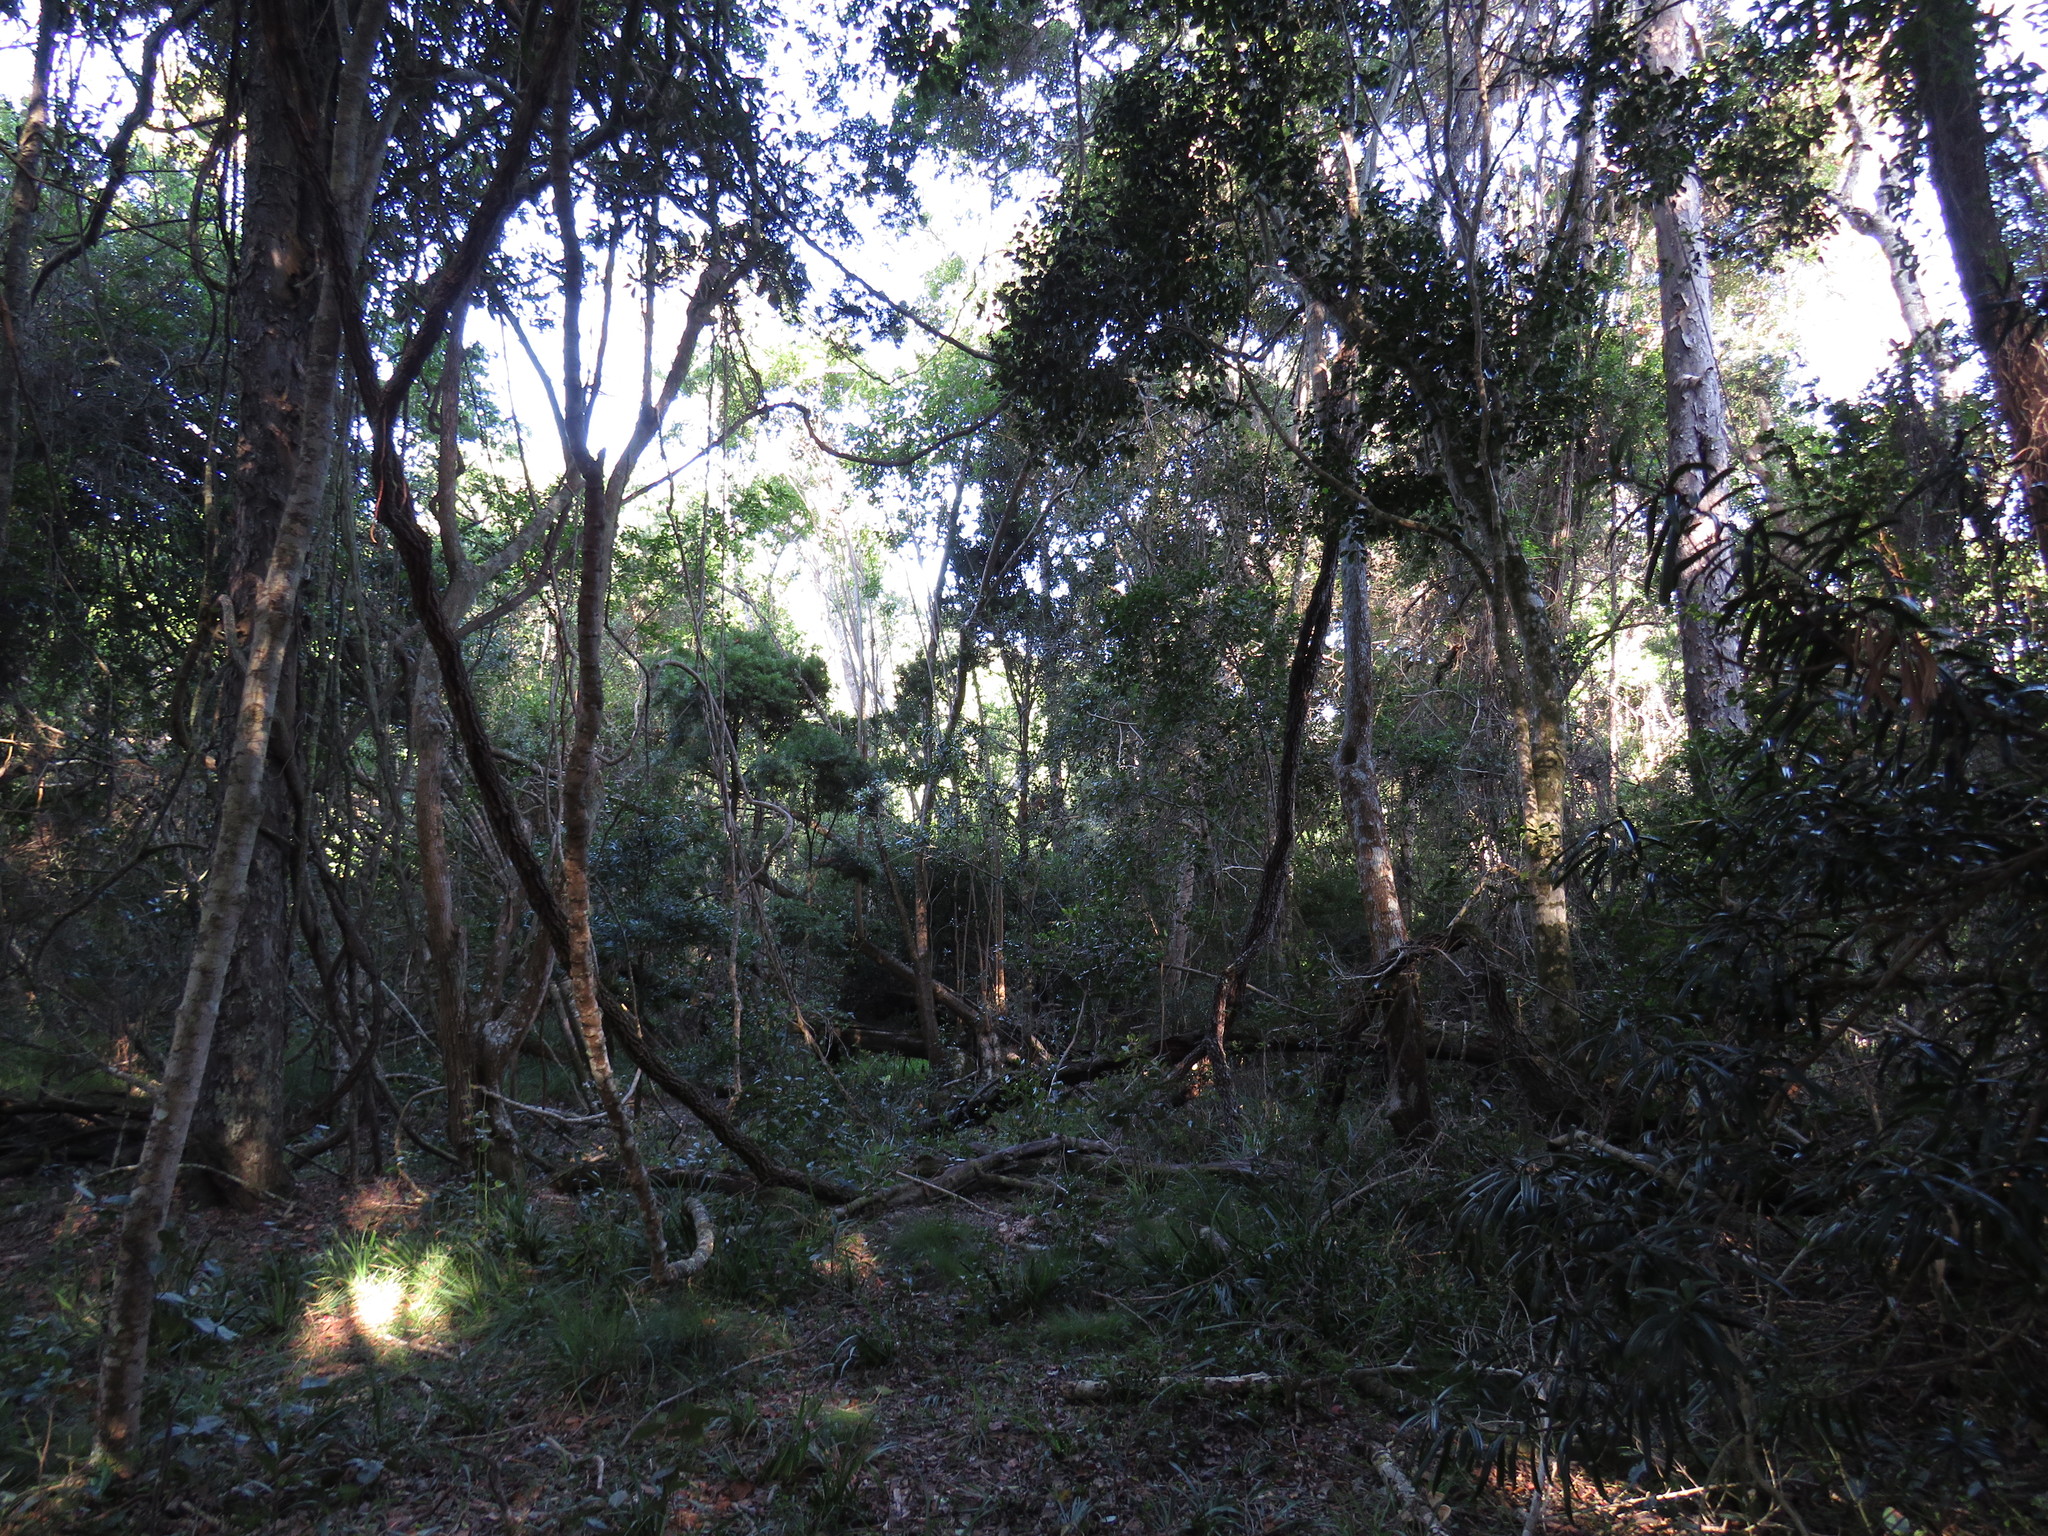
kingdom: Plantae
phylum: Tracheophyta
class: Magnoliopsida
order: Vitales
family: Vitaceae
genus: Rhoicissus
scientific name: Rhoicissus tomentosa
